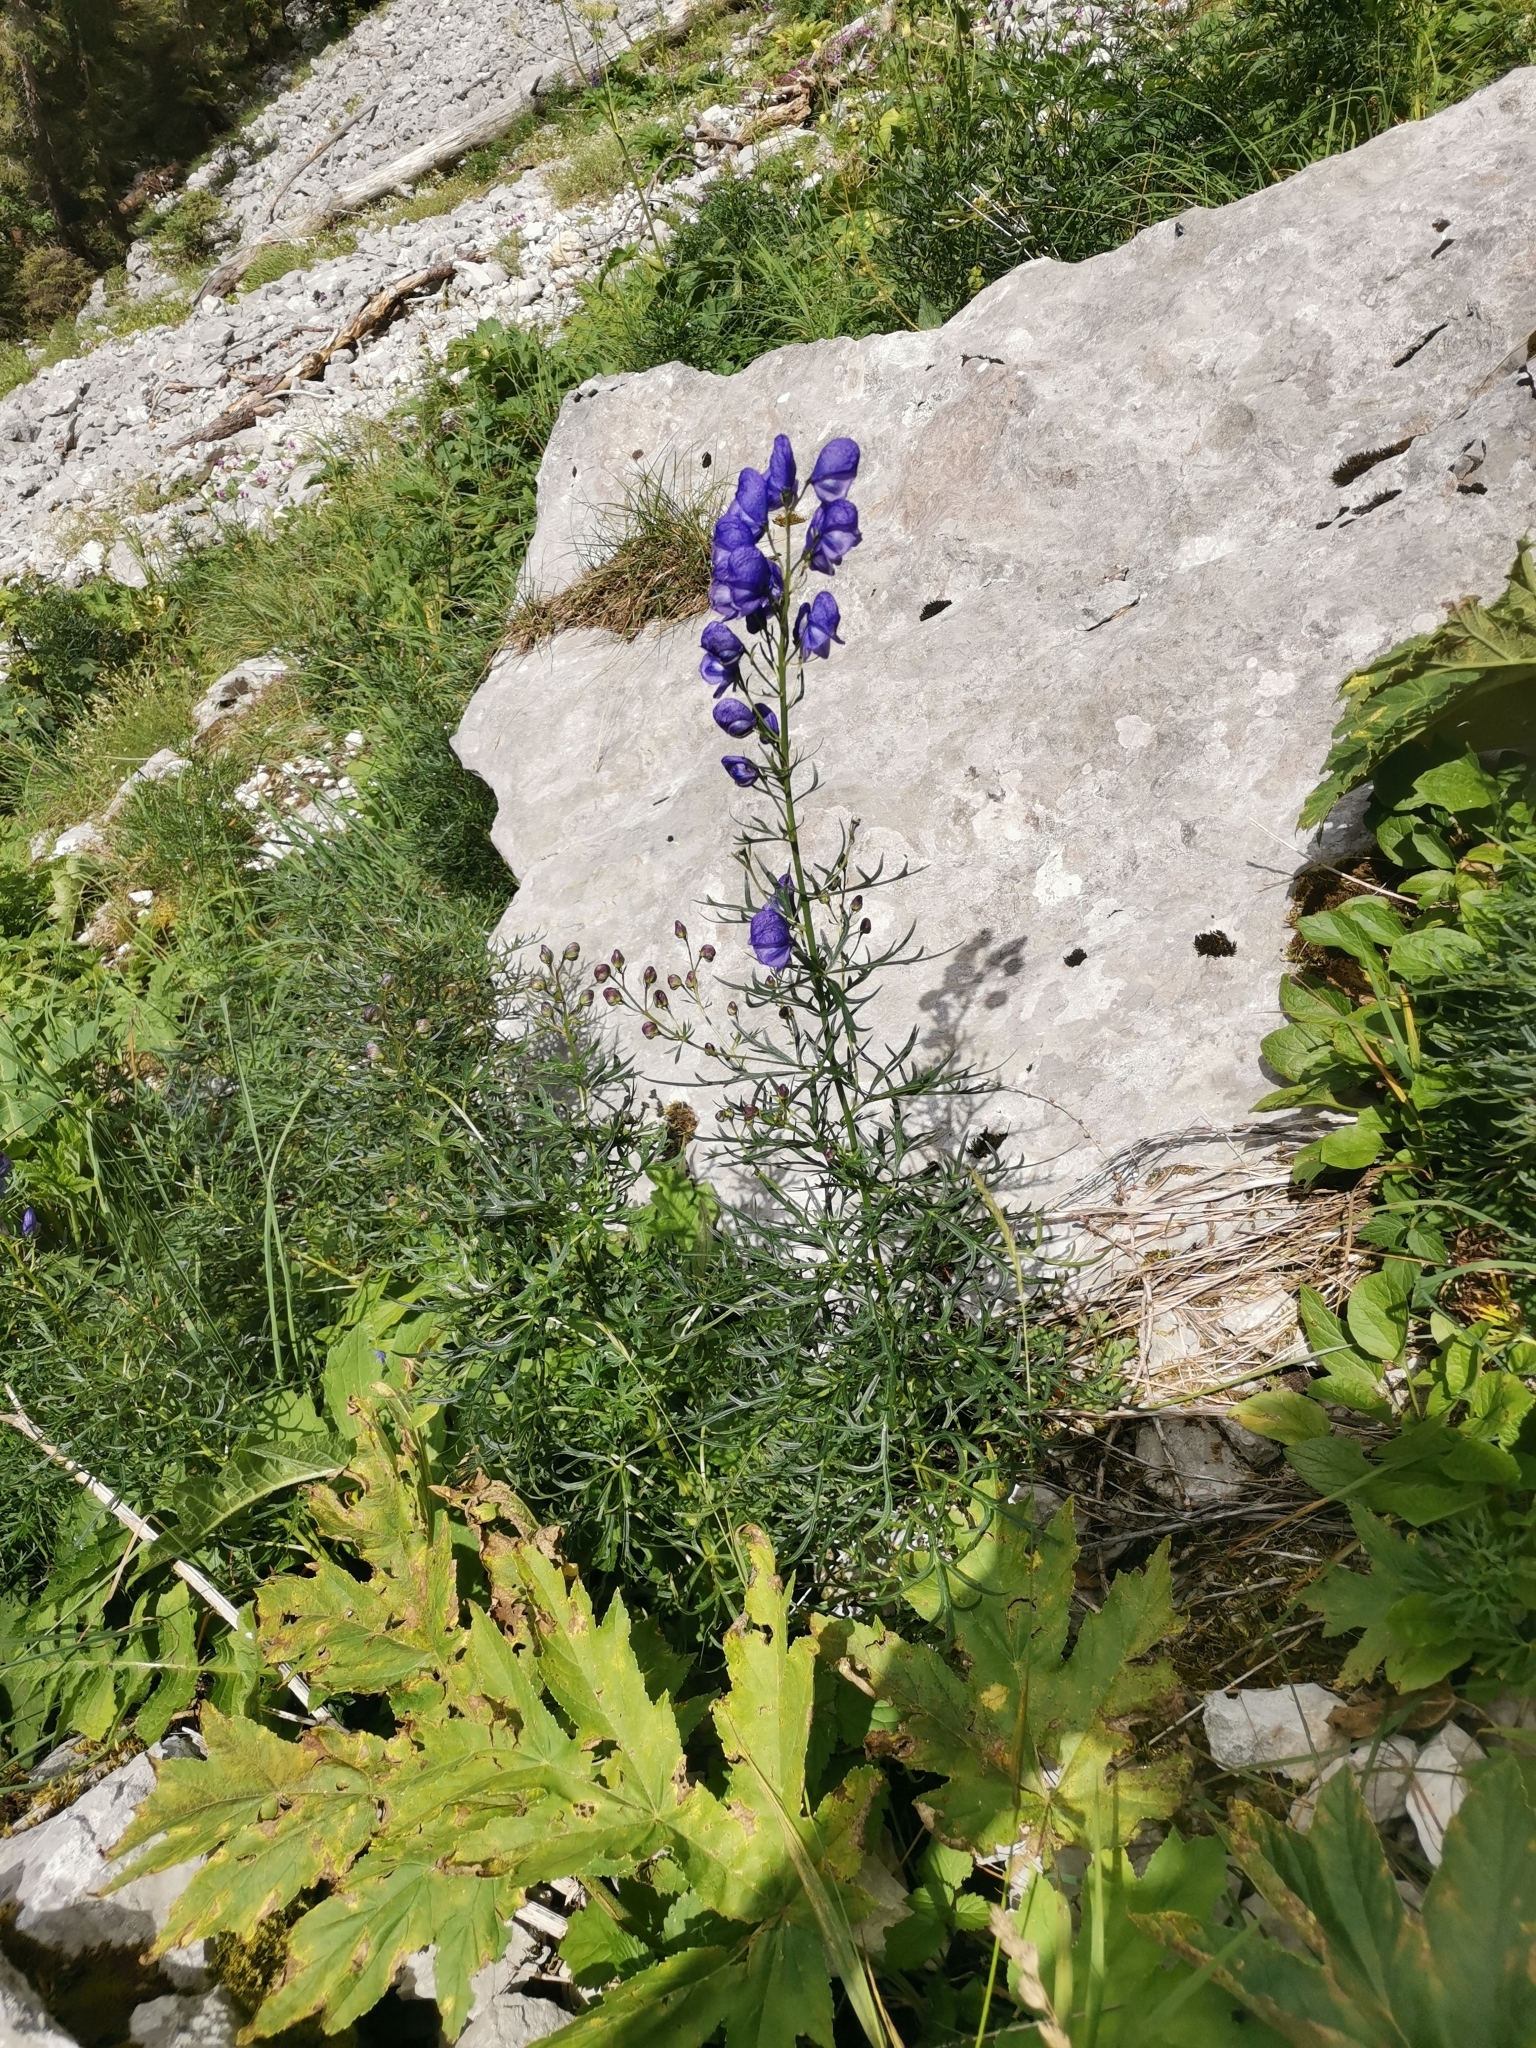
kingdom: Plantae
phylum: Tracheophyta
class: Magnoliopsida
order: Ranunculales
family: Ranunculaceae
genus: Aconitum
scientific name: Aconitum angustifolium
